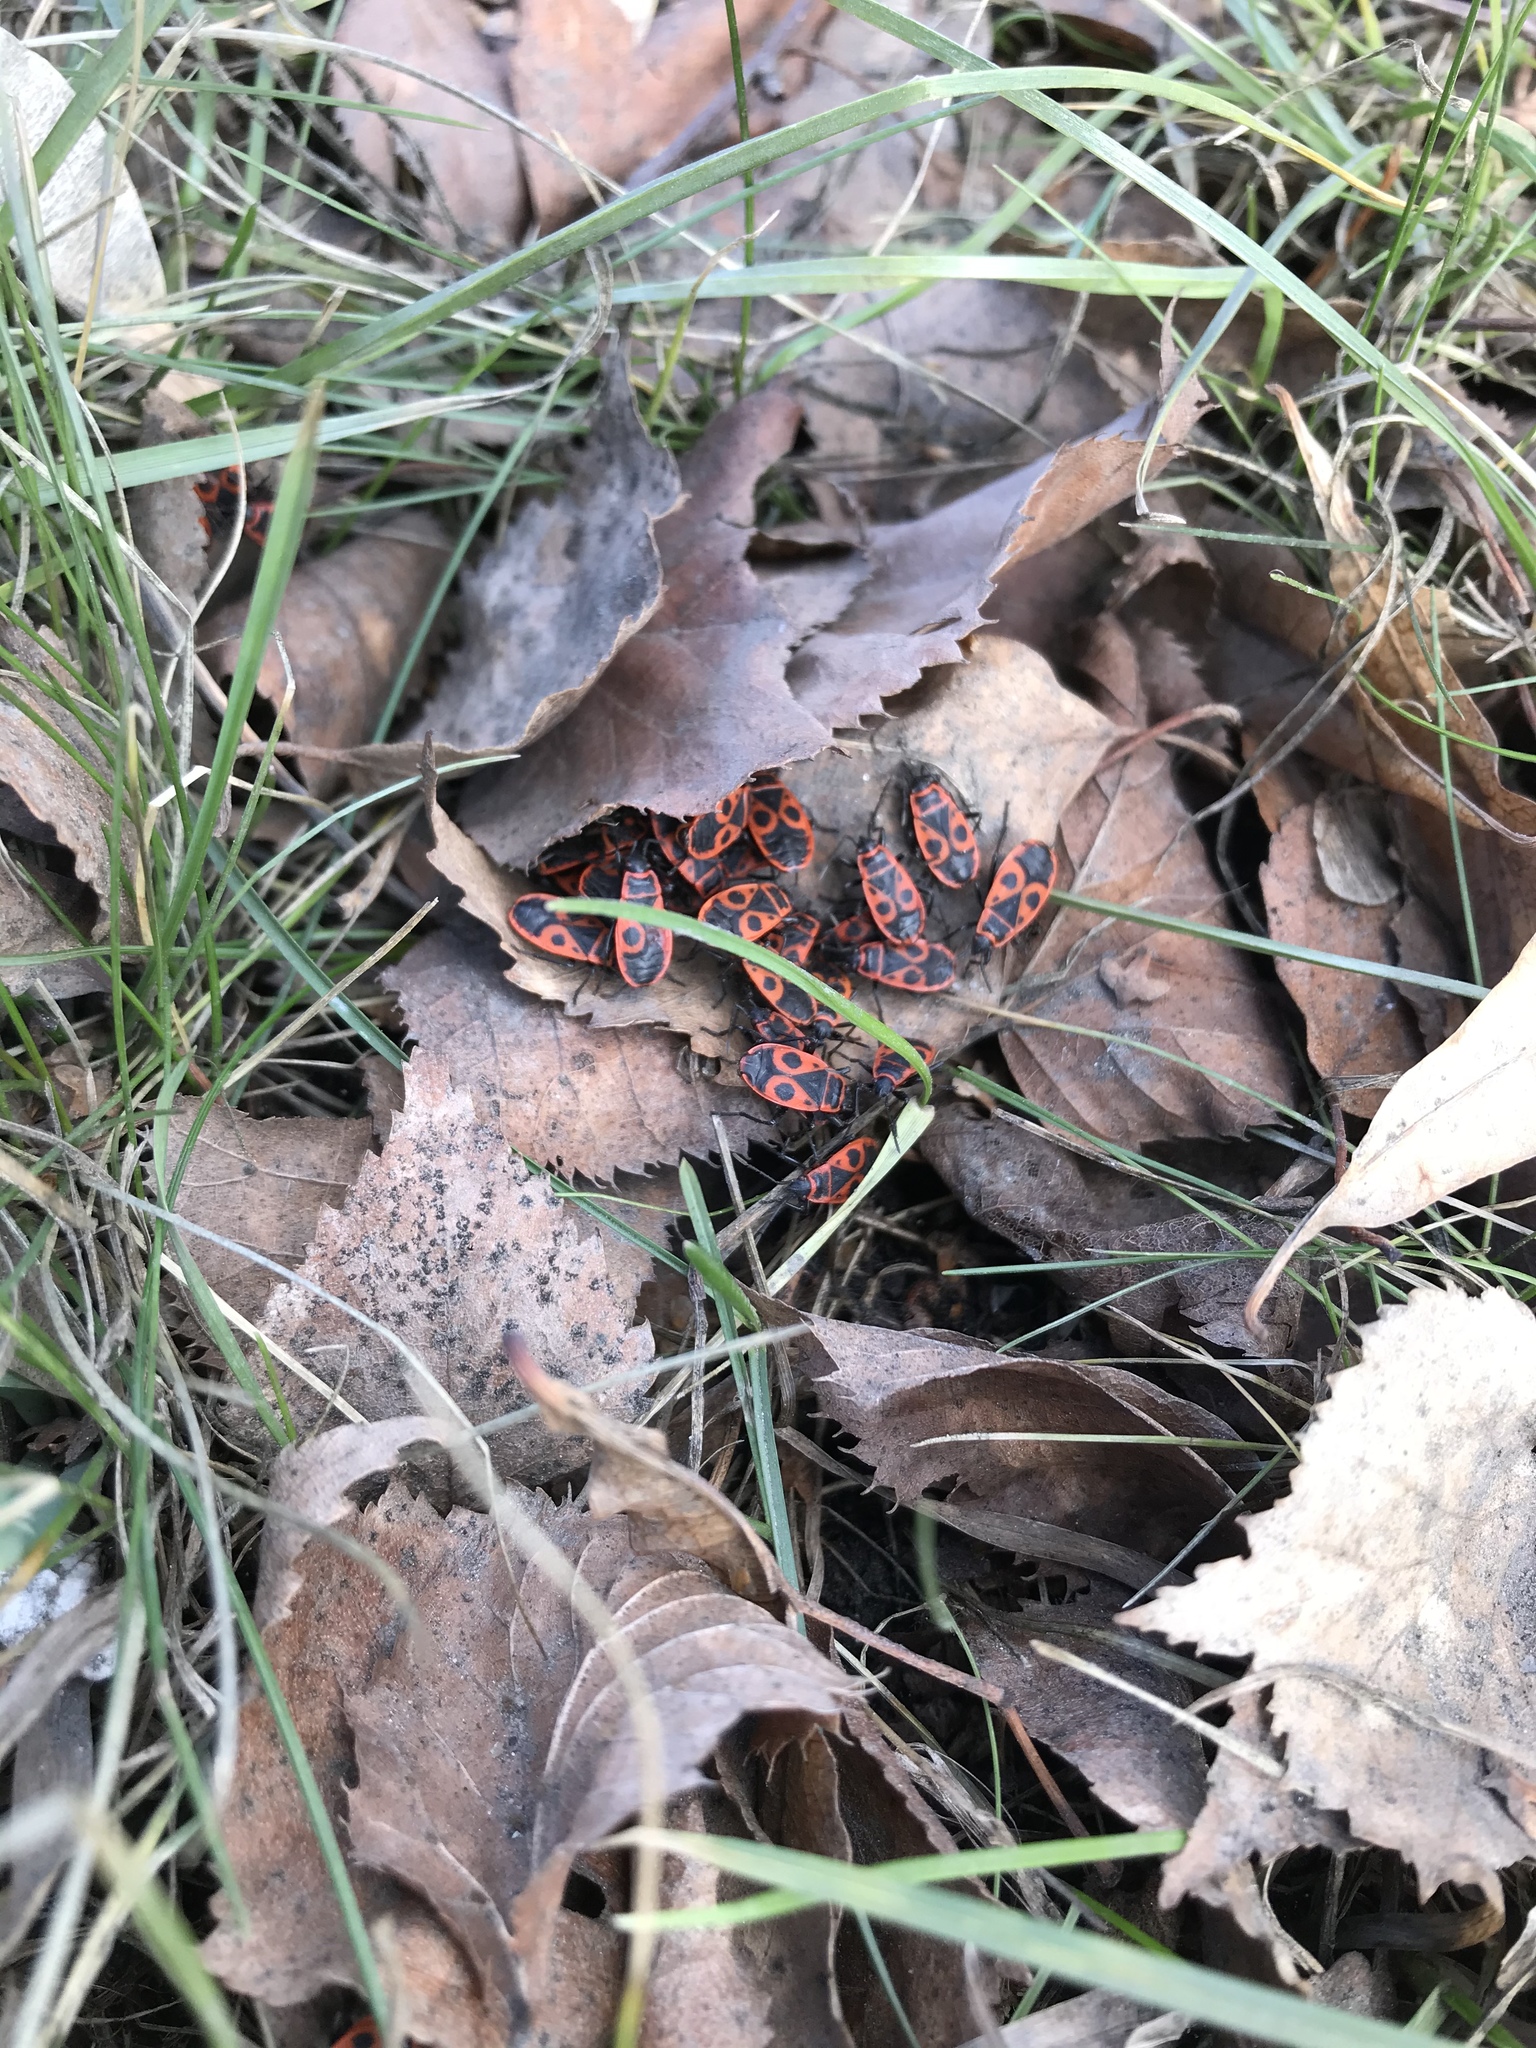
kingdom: Animalia
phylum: Arthropoda
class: Insecta
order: Hemiptera
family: Pyrrhocoridae
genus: Pyrrhocoris
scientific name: Pyrrhocoris apterus
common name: Firebug
